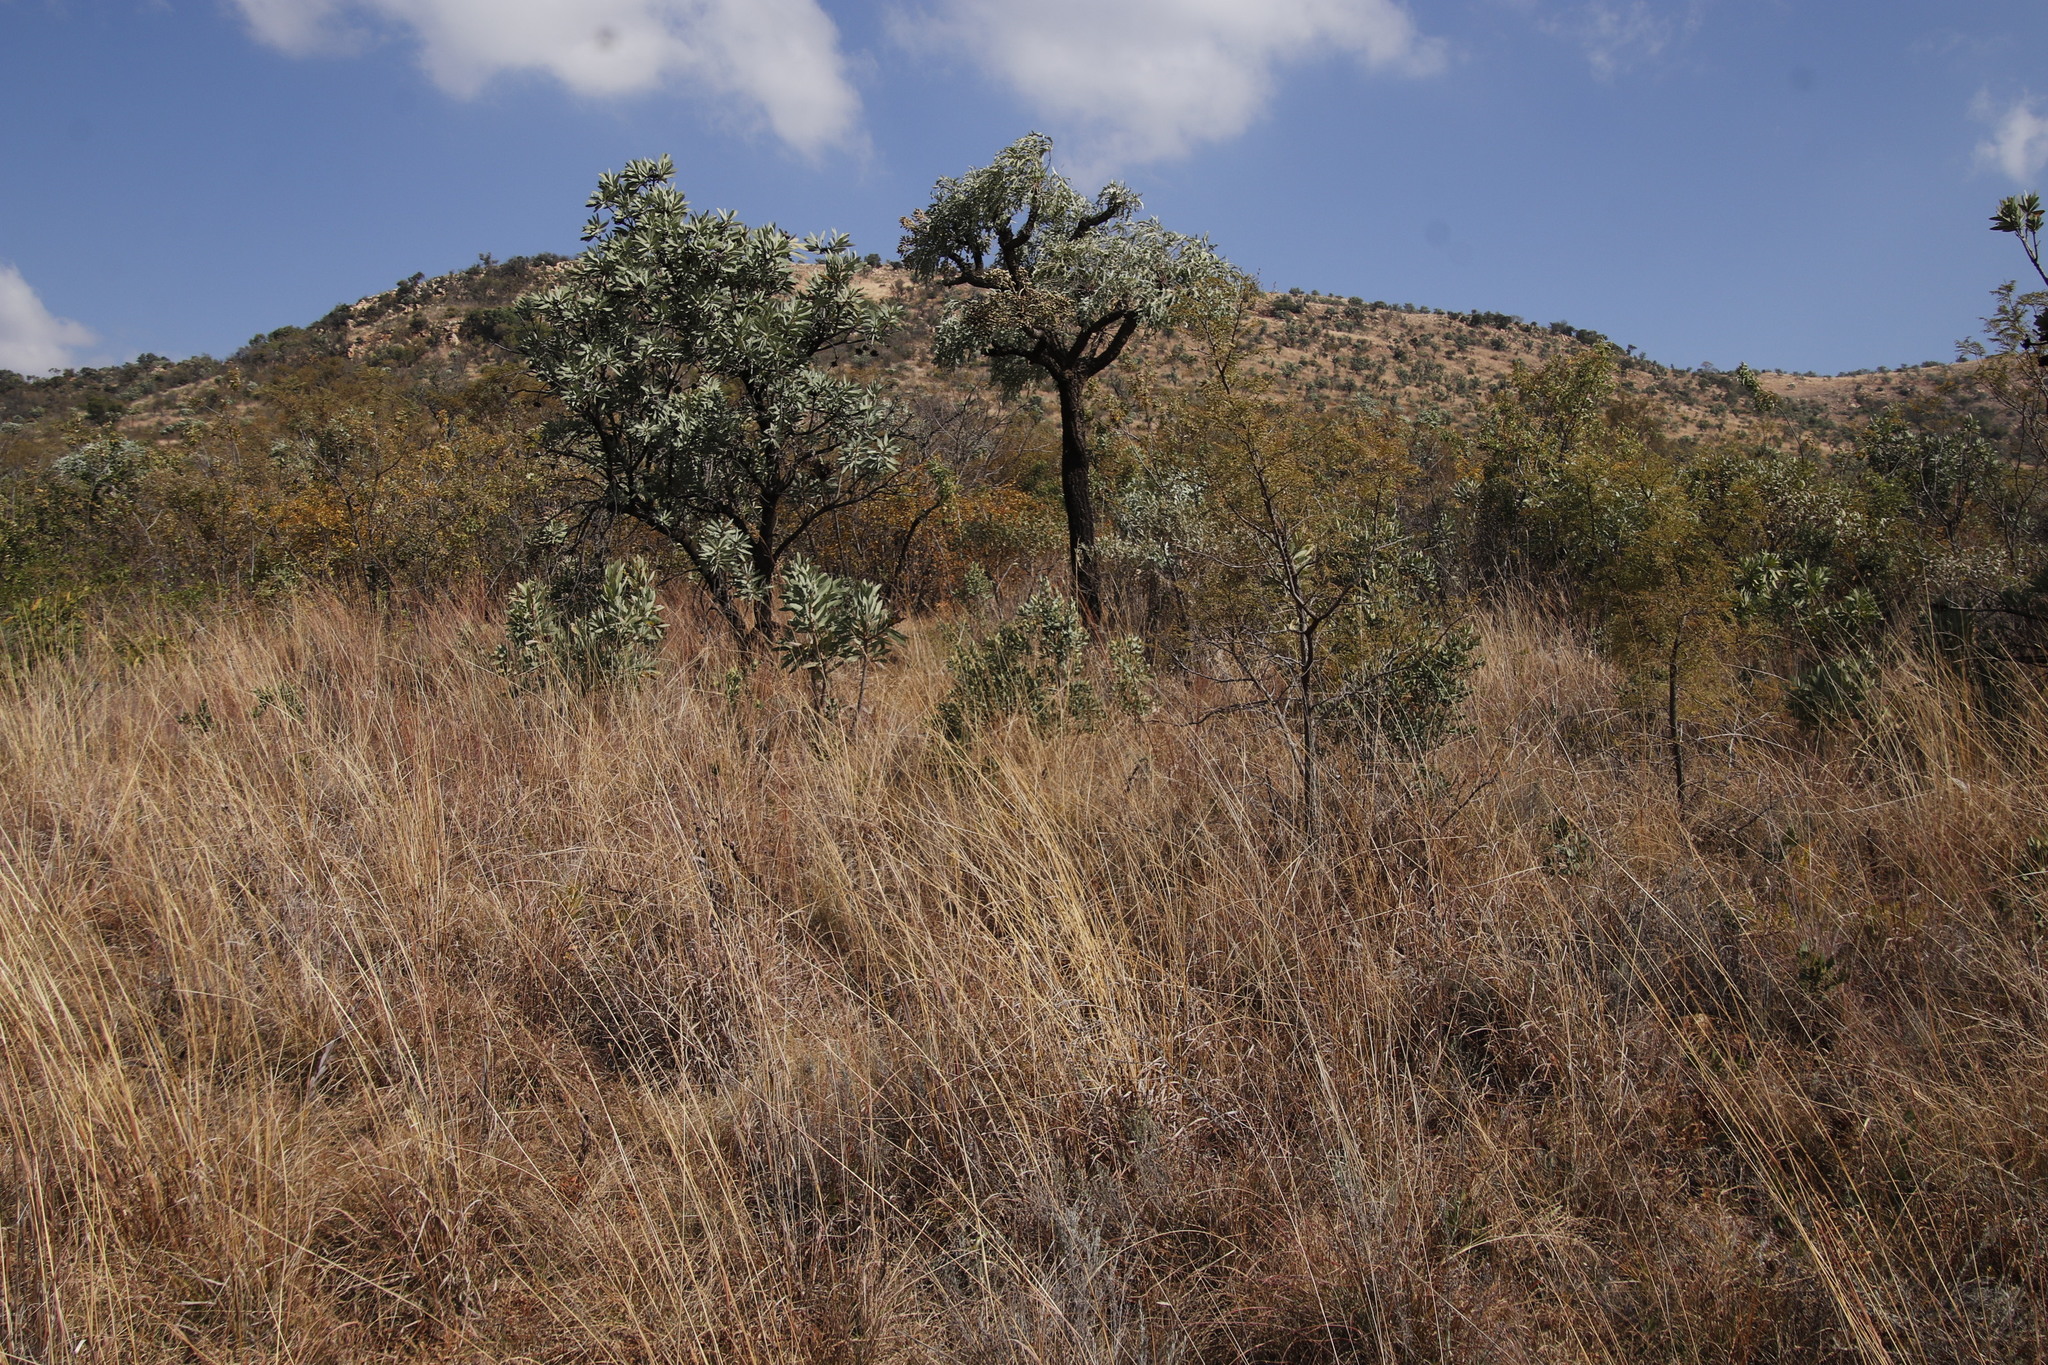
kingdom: Plantae
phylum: Tracheophyta
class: Magnoliopsida
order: Apiales
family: Araliaceae
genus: Cussonia
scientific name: Cussonia paniculata
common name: Cabbagetree
